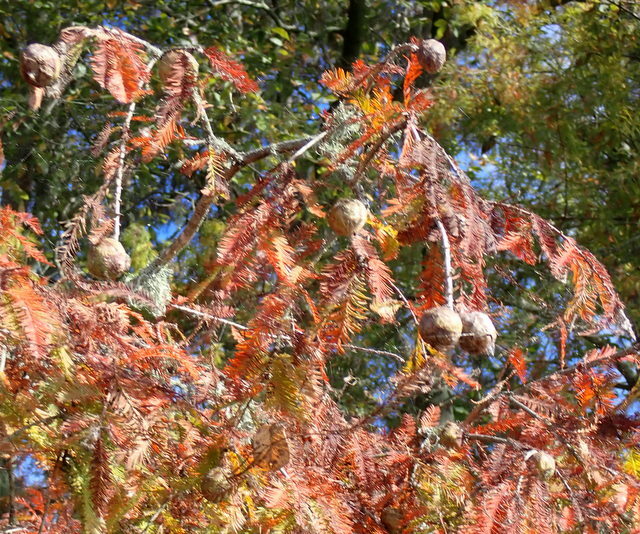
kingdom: Plantae
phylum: Tracheophyta
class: Pinopsida
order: Pinales
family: Cupressaceae
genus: Taxodium
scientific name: Taxodium distichum
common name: Bald cypress
